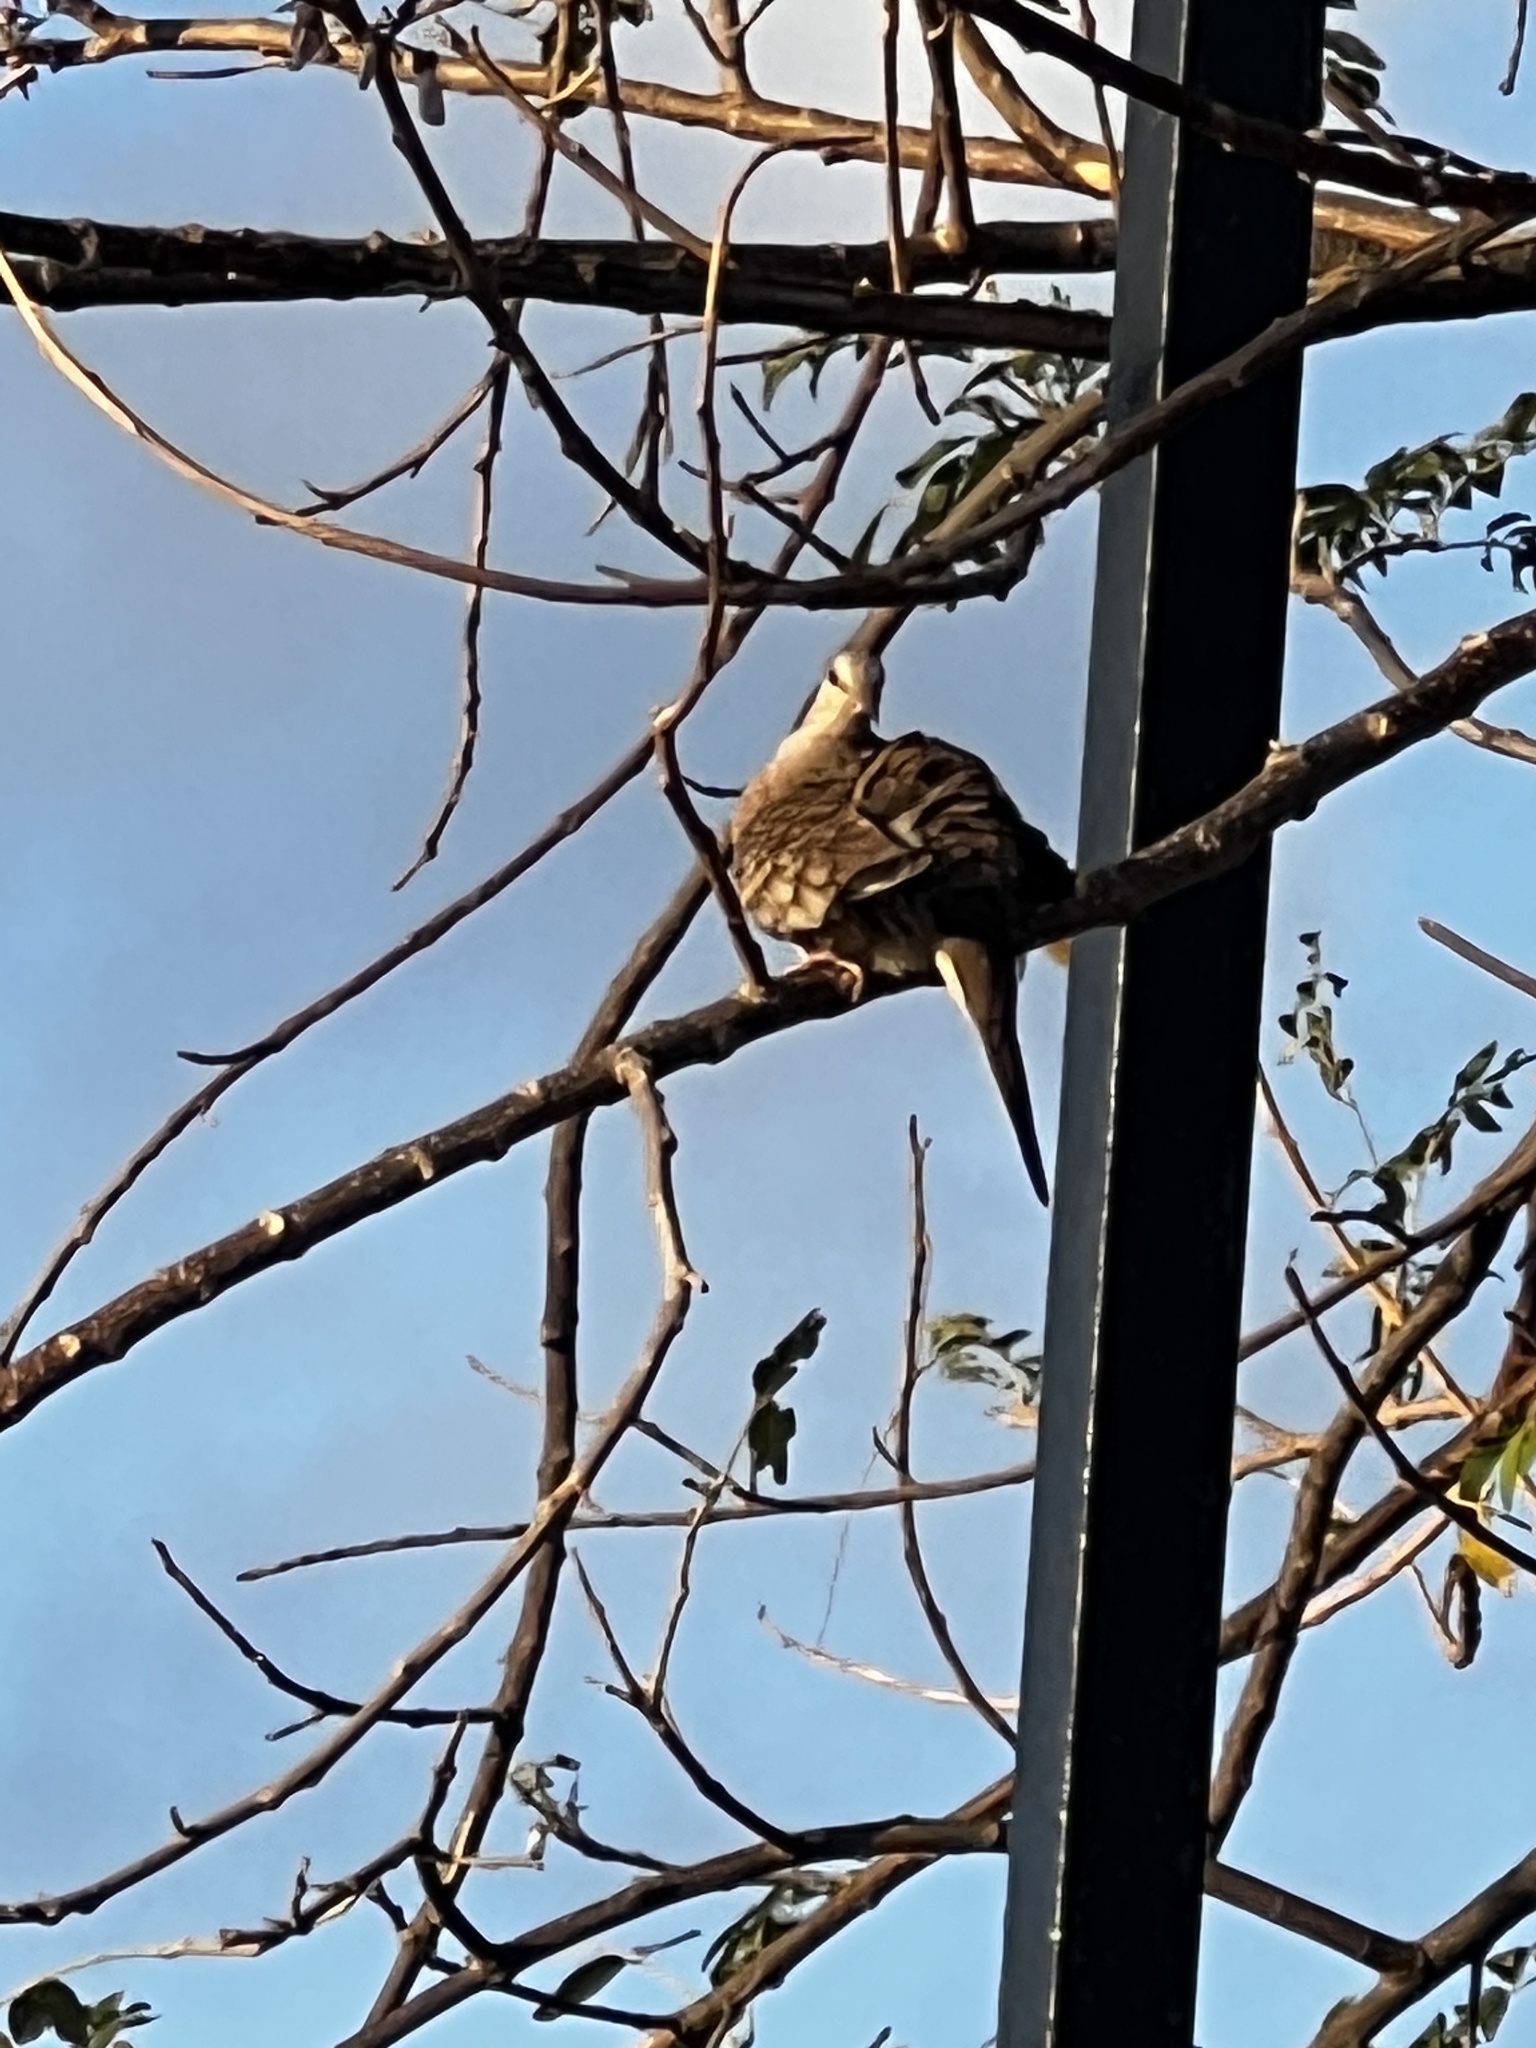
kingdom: Animalia
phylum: Chordata
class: Aves
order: Columbiformes
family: Columbidae
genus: Columbina
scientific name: Columbina inca
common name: Inca dove
